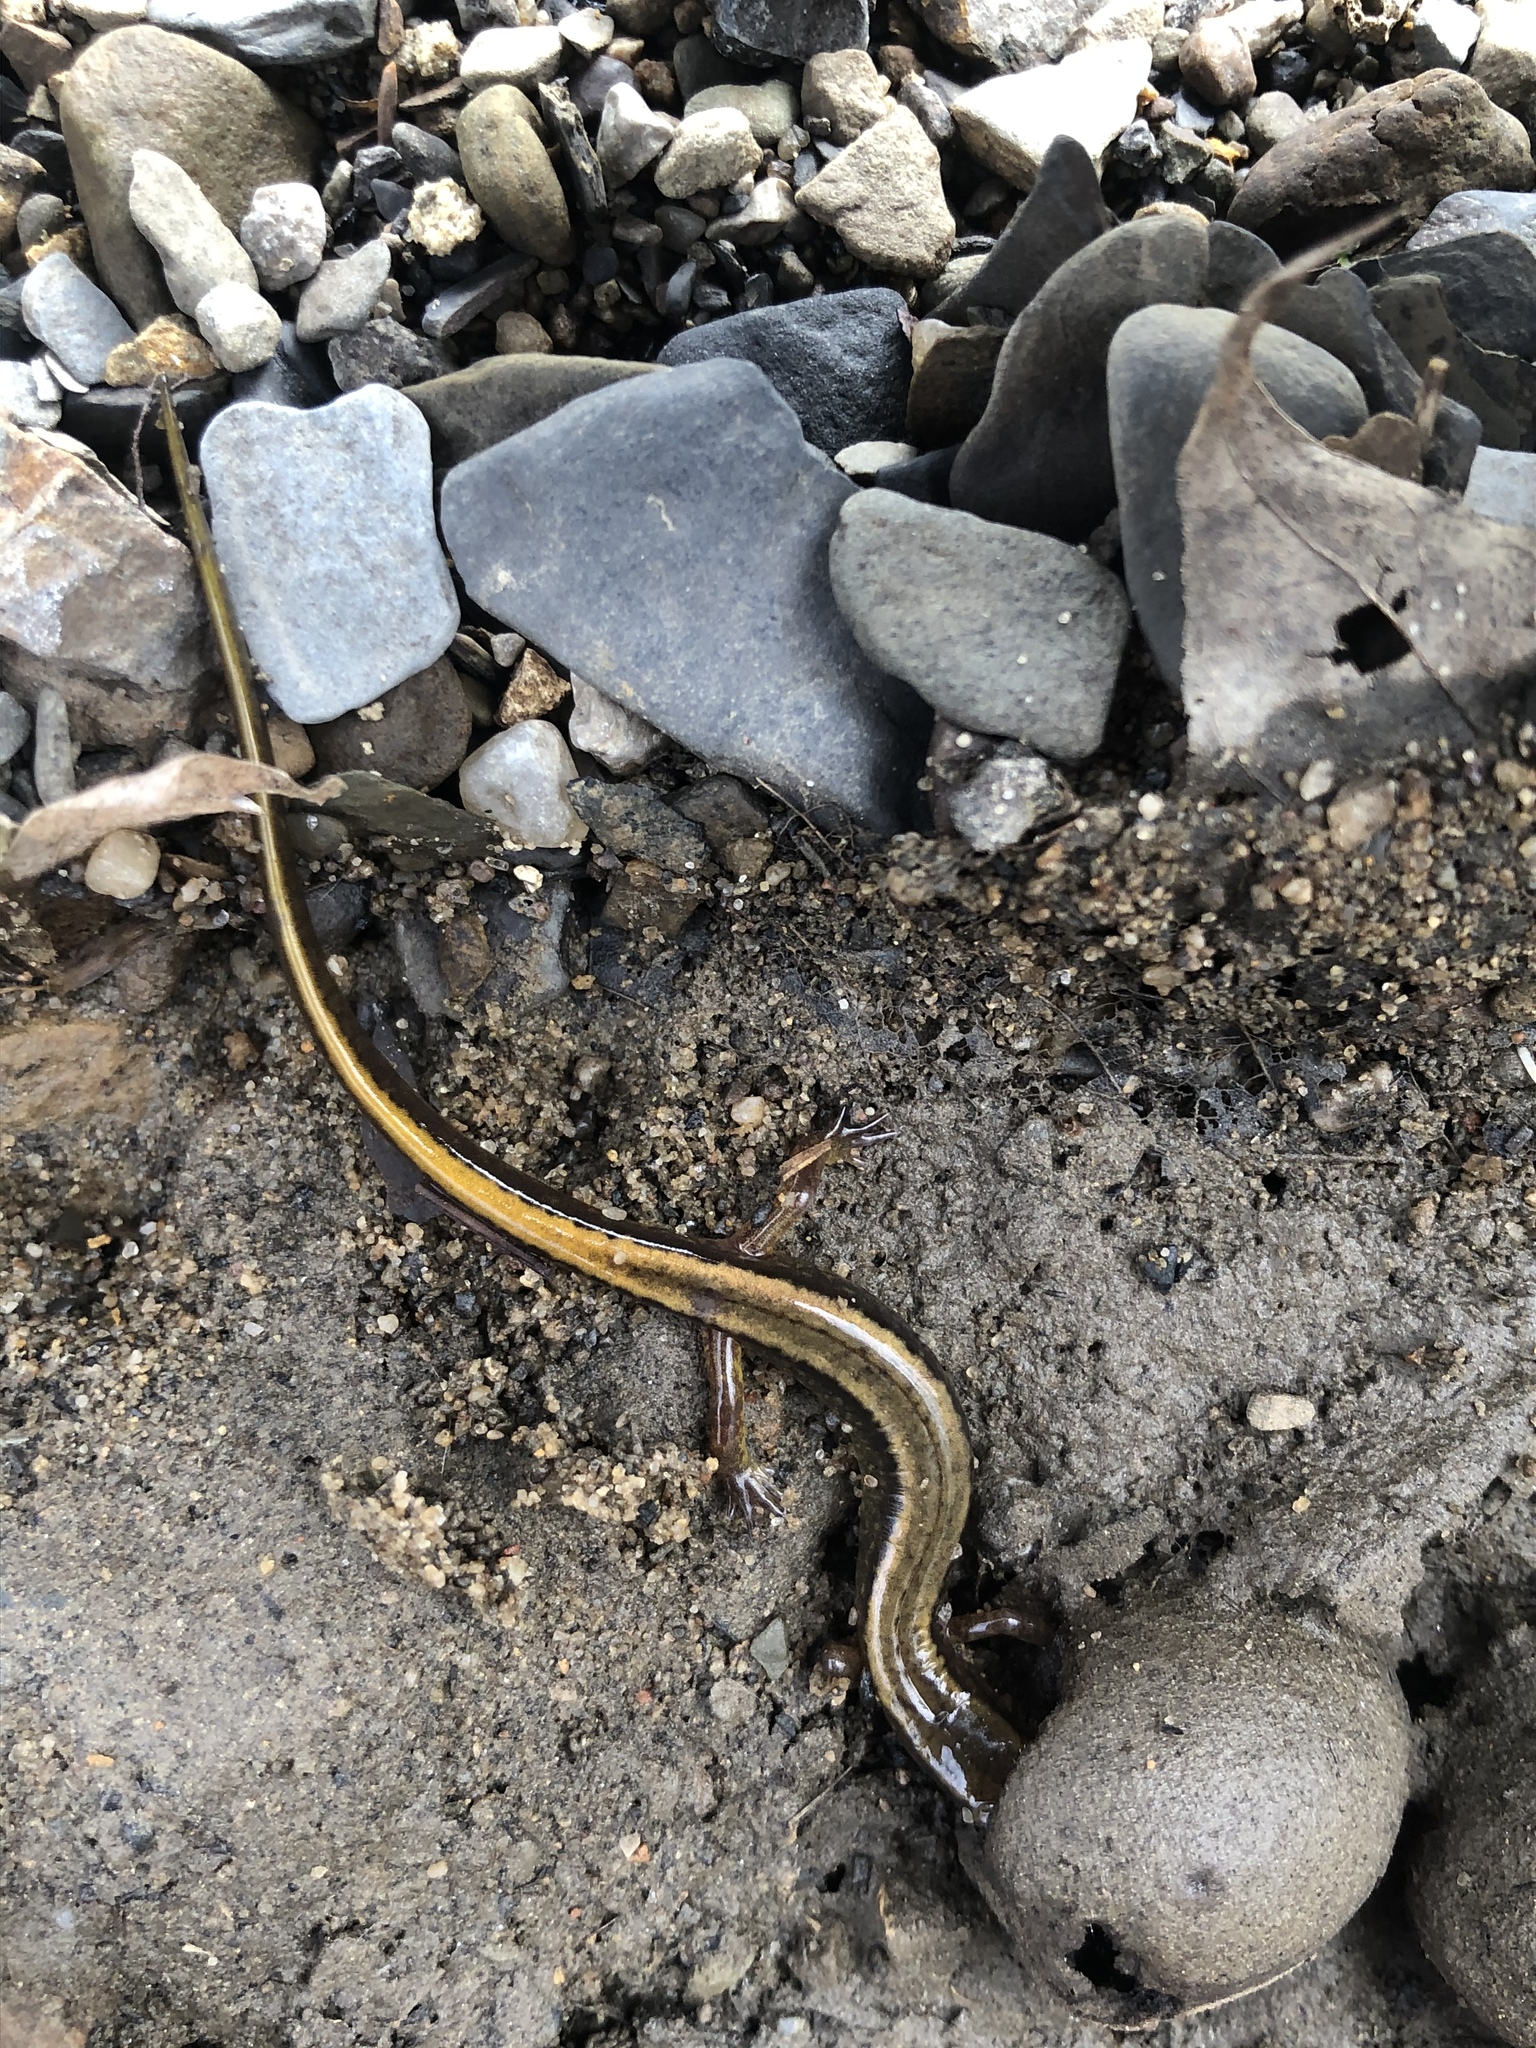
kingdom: Animalia
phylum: Chordata
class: Amphibia
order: Caudata
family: Plethodontidae
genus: Eurycea
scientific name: Eurycea bislineata
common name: Northern two-lined salamander
